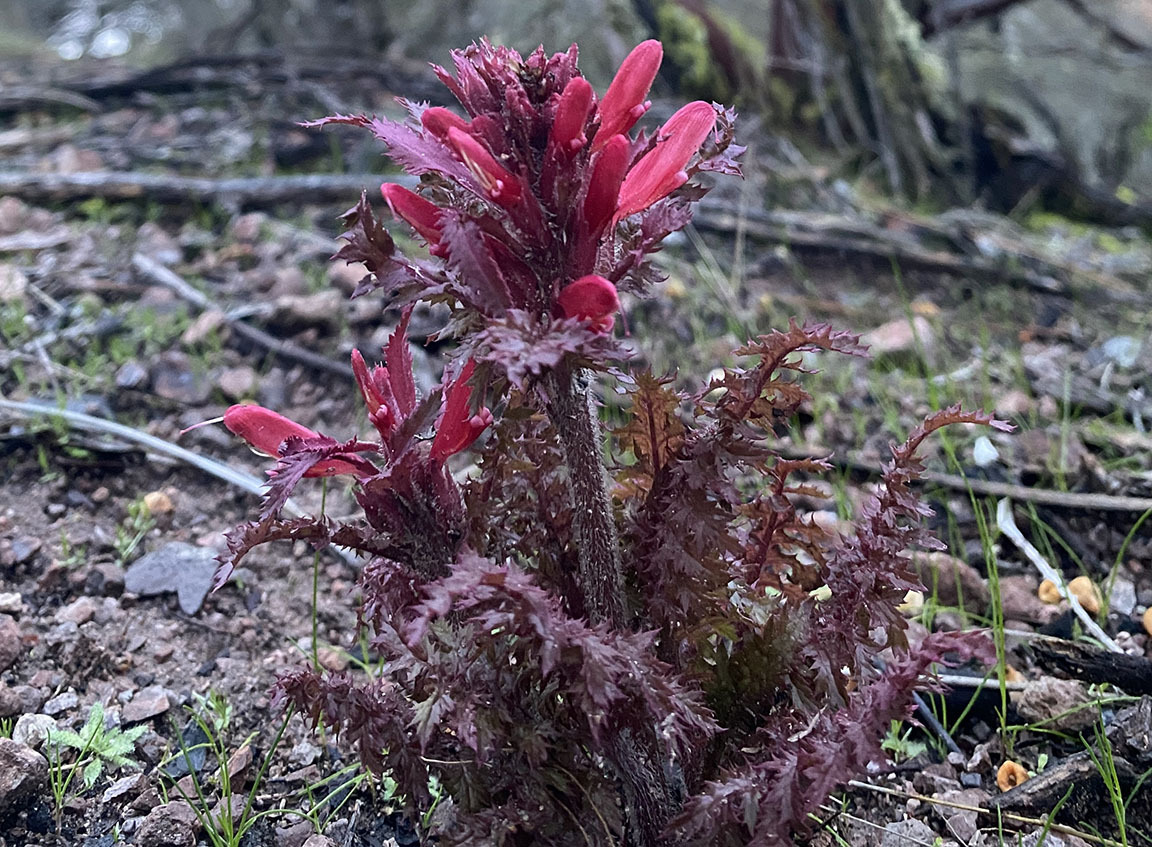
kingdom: Plantae
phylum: Tracheophyta
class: Magnoliopsida
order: Lamiales
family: Orobanchaceae
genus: Pedicularis
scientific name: Pedicularis densiflora
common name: Indian warrior
